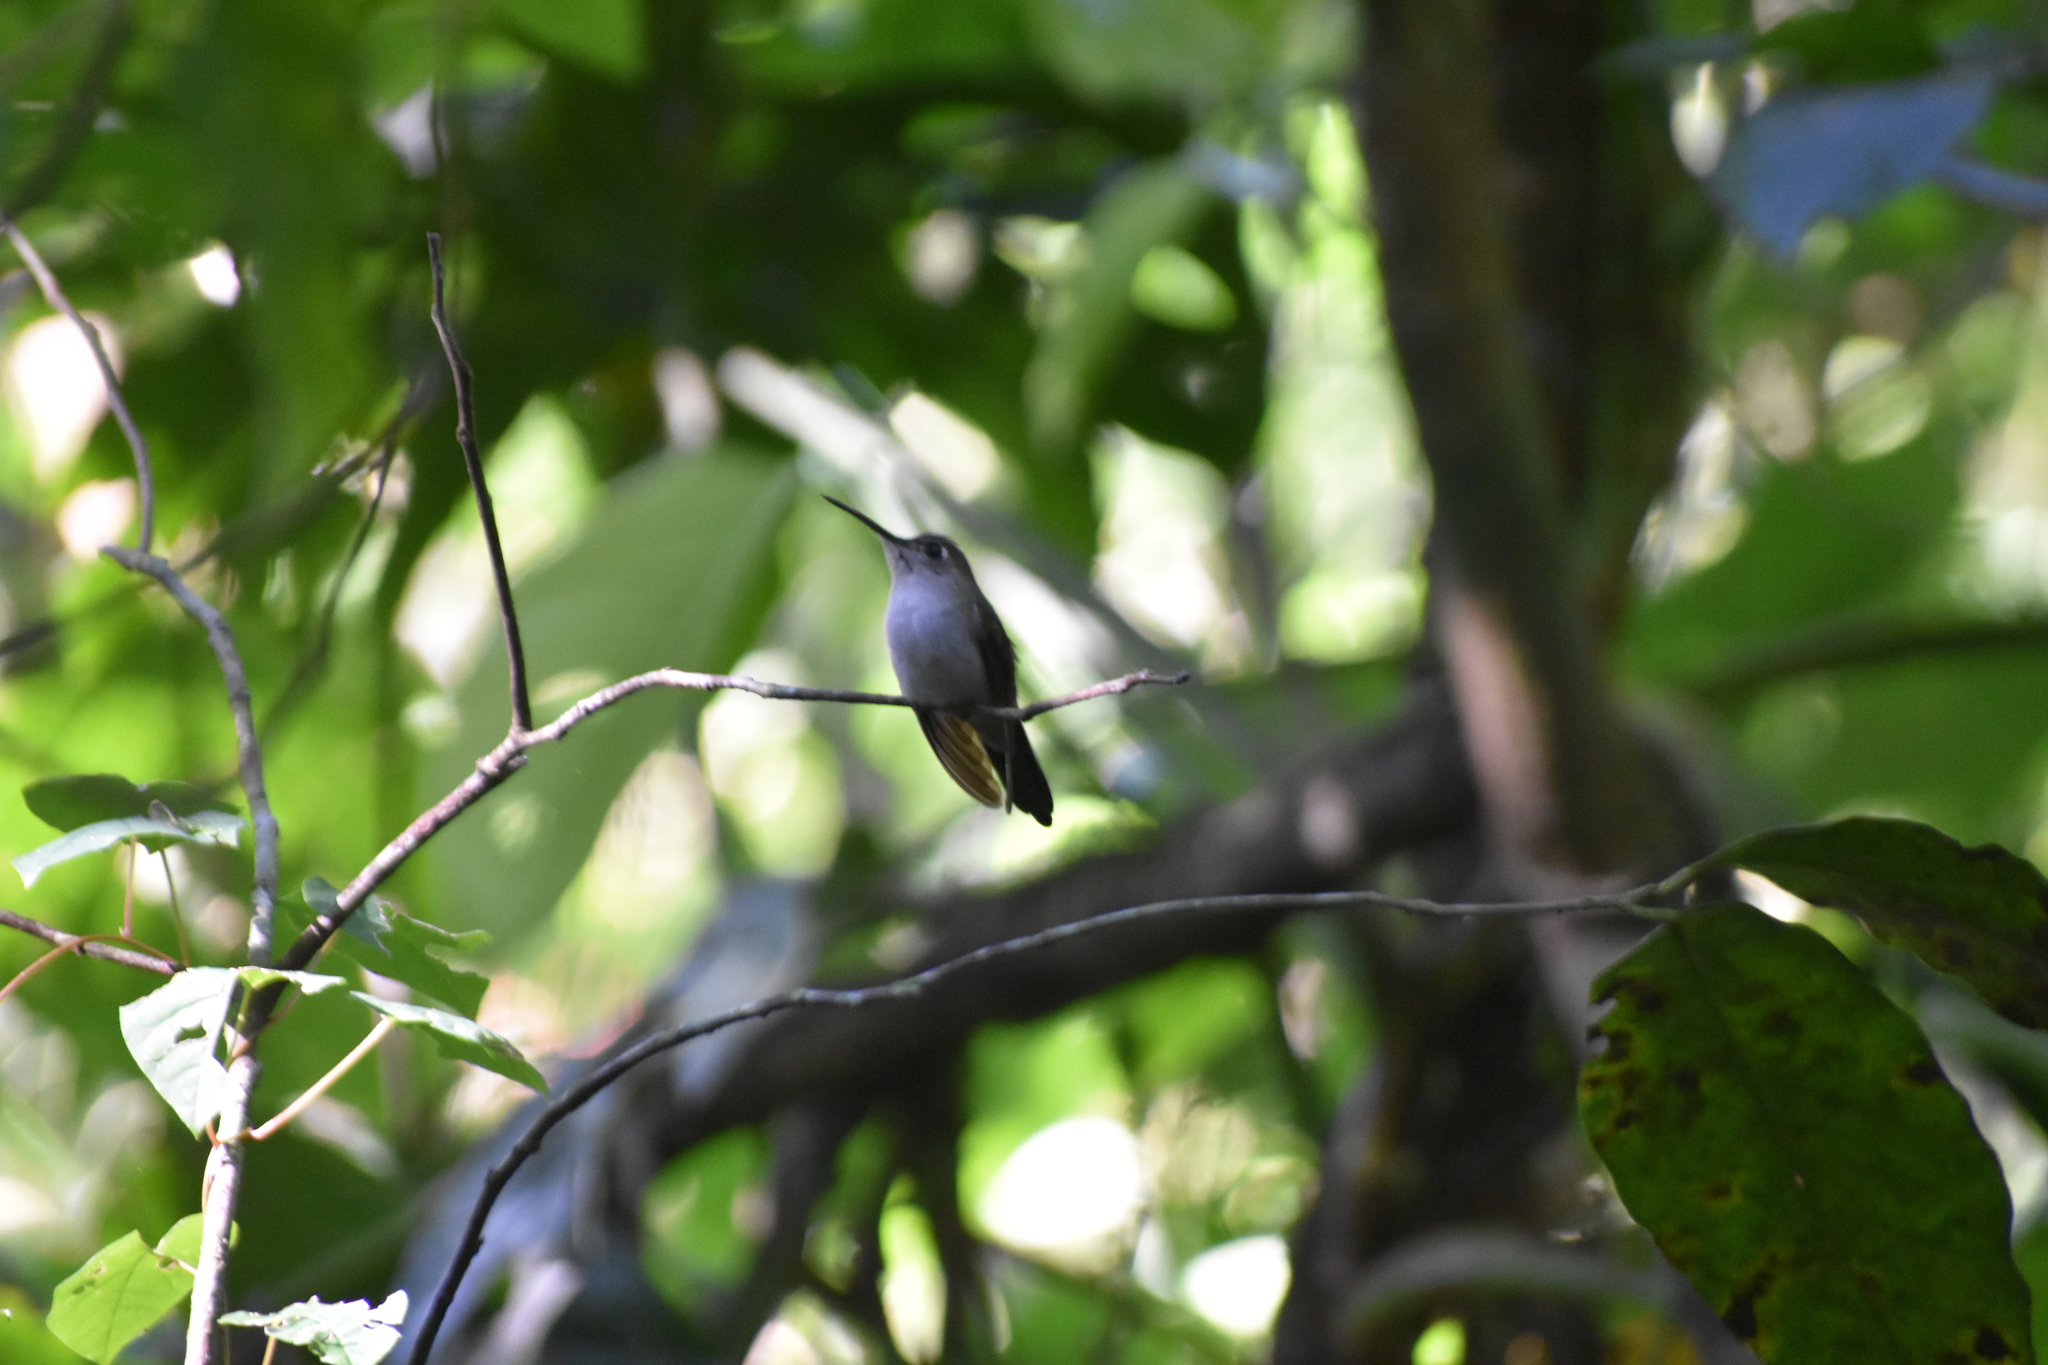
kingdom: Animalia
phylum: Chordata
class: Aves
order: Apodiformes
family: Trochilidae
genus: Pampa
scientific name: Pampa curvipennis
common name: Curve-winged sabrewing
